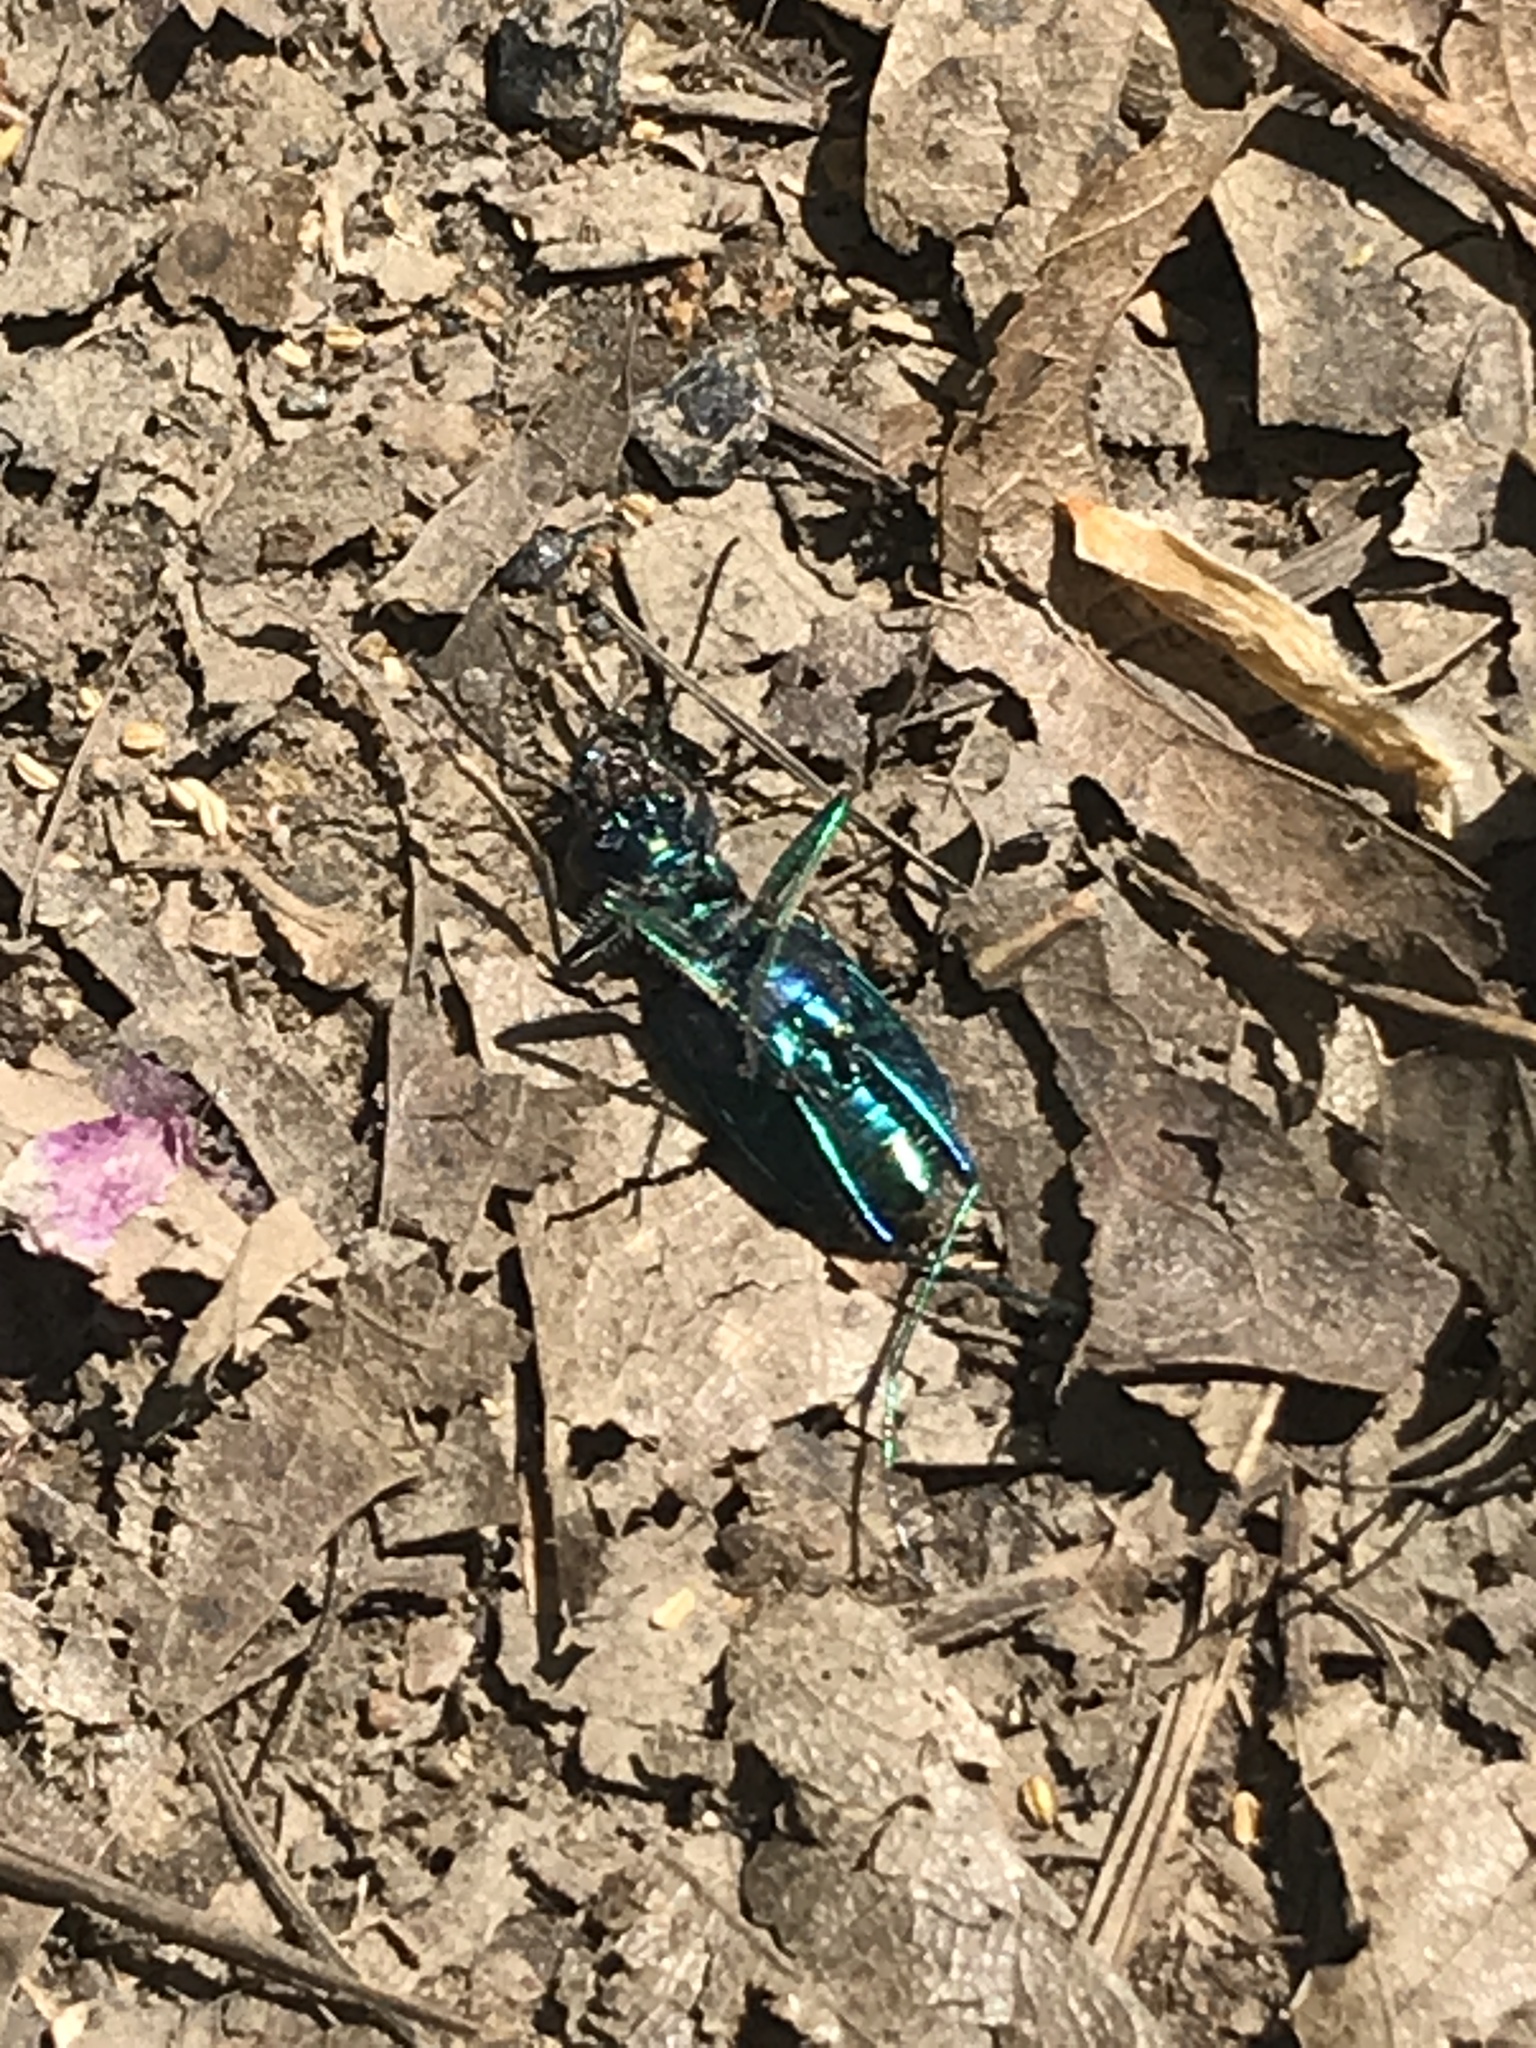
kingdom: Animalia
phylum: Arthropoda
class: Insecta
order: Coleoptera
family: Carabidae
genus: Cicindela
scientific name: Cicindela
